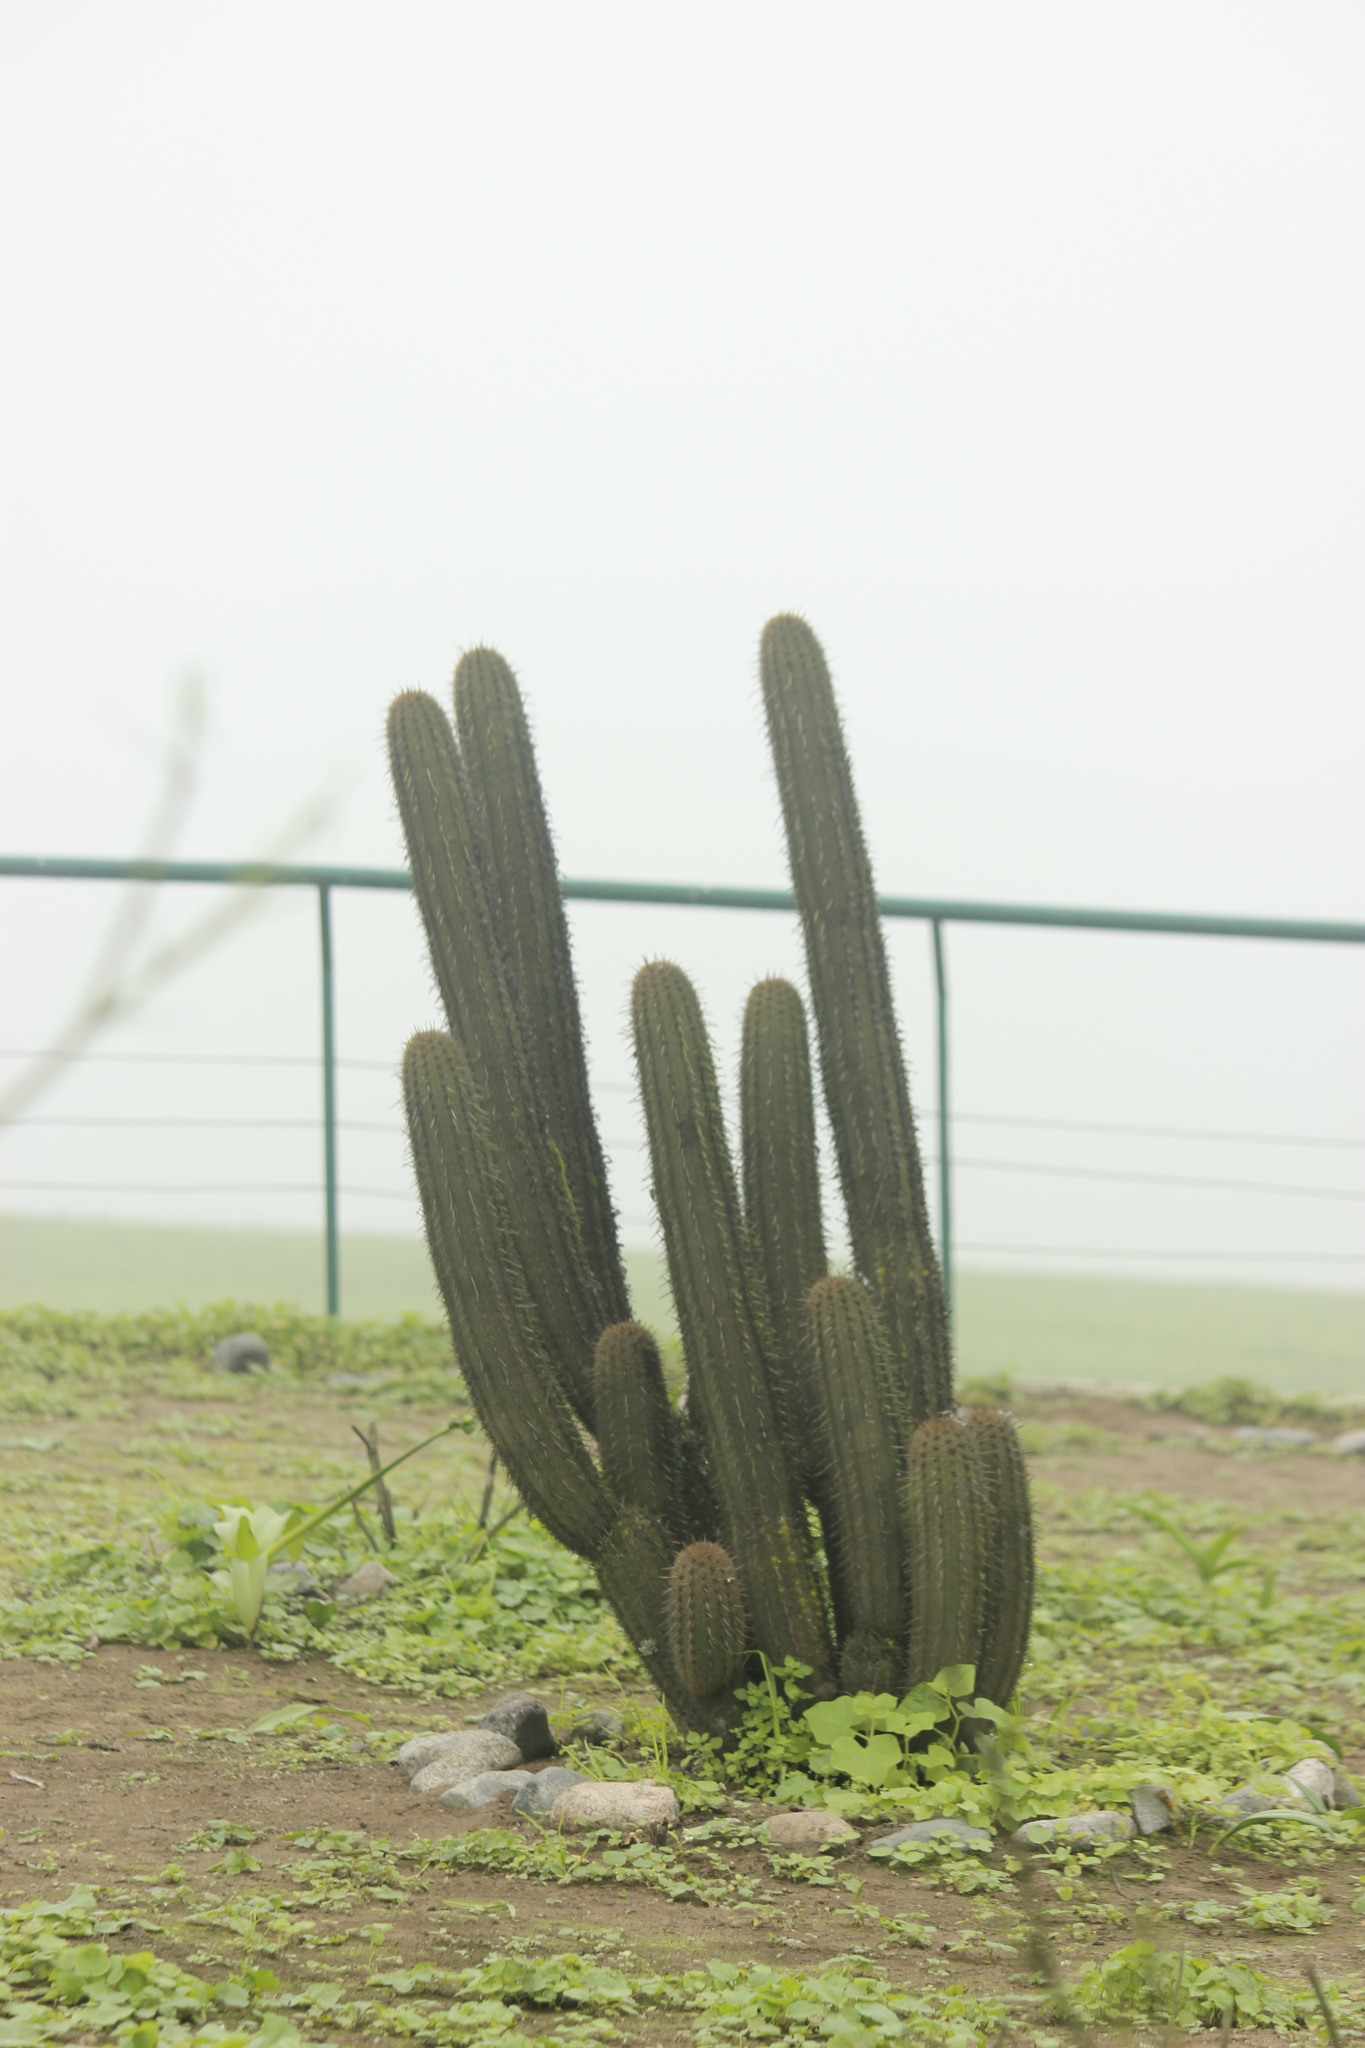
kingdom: Plantae
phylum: Tracheophyta
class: Magnoliopsida
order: Caryophyllales
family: Cactaceae
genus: Haageocereus
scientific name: Haageocereus acranthus
